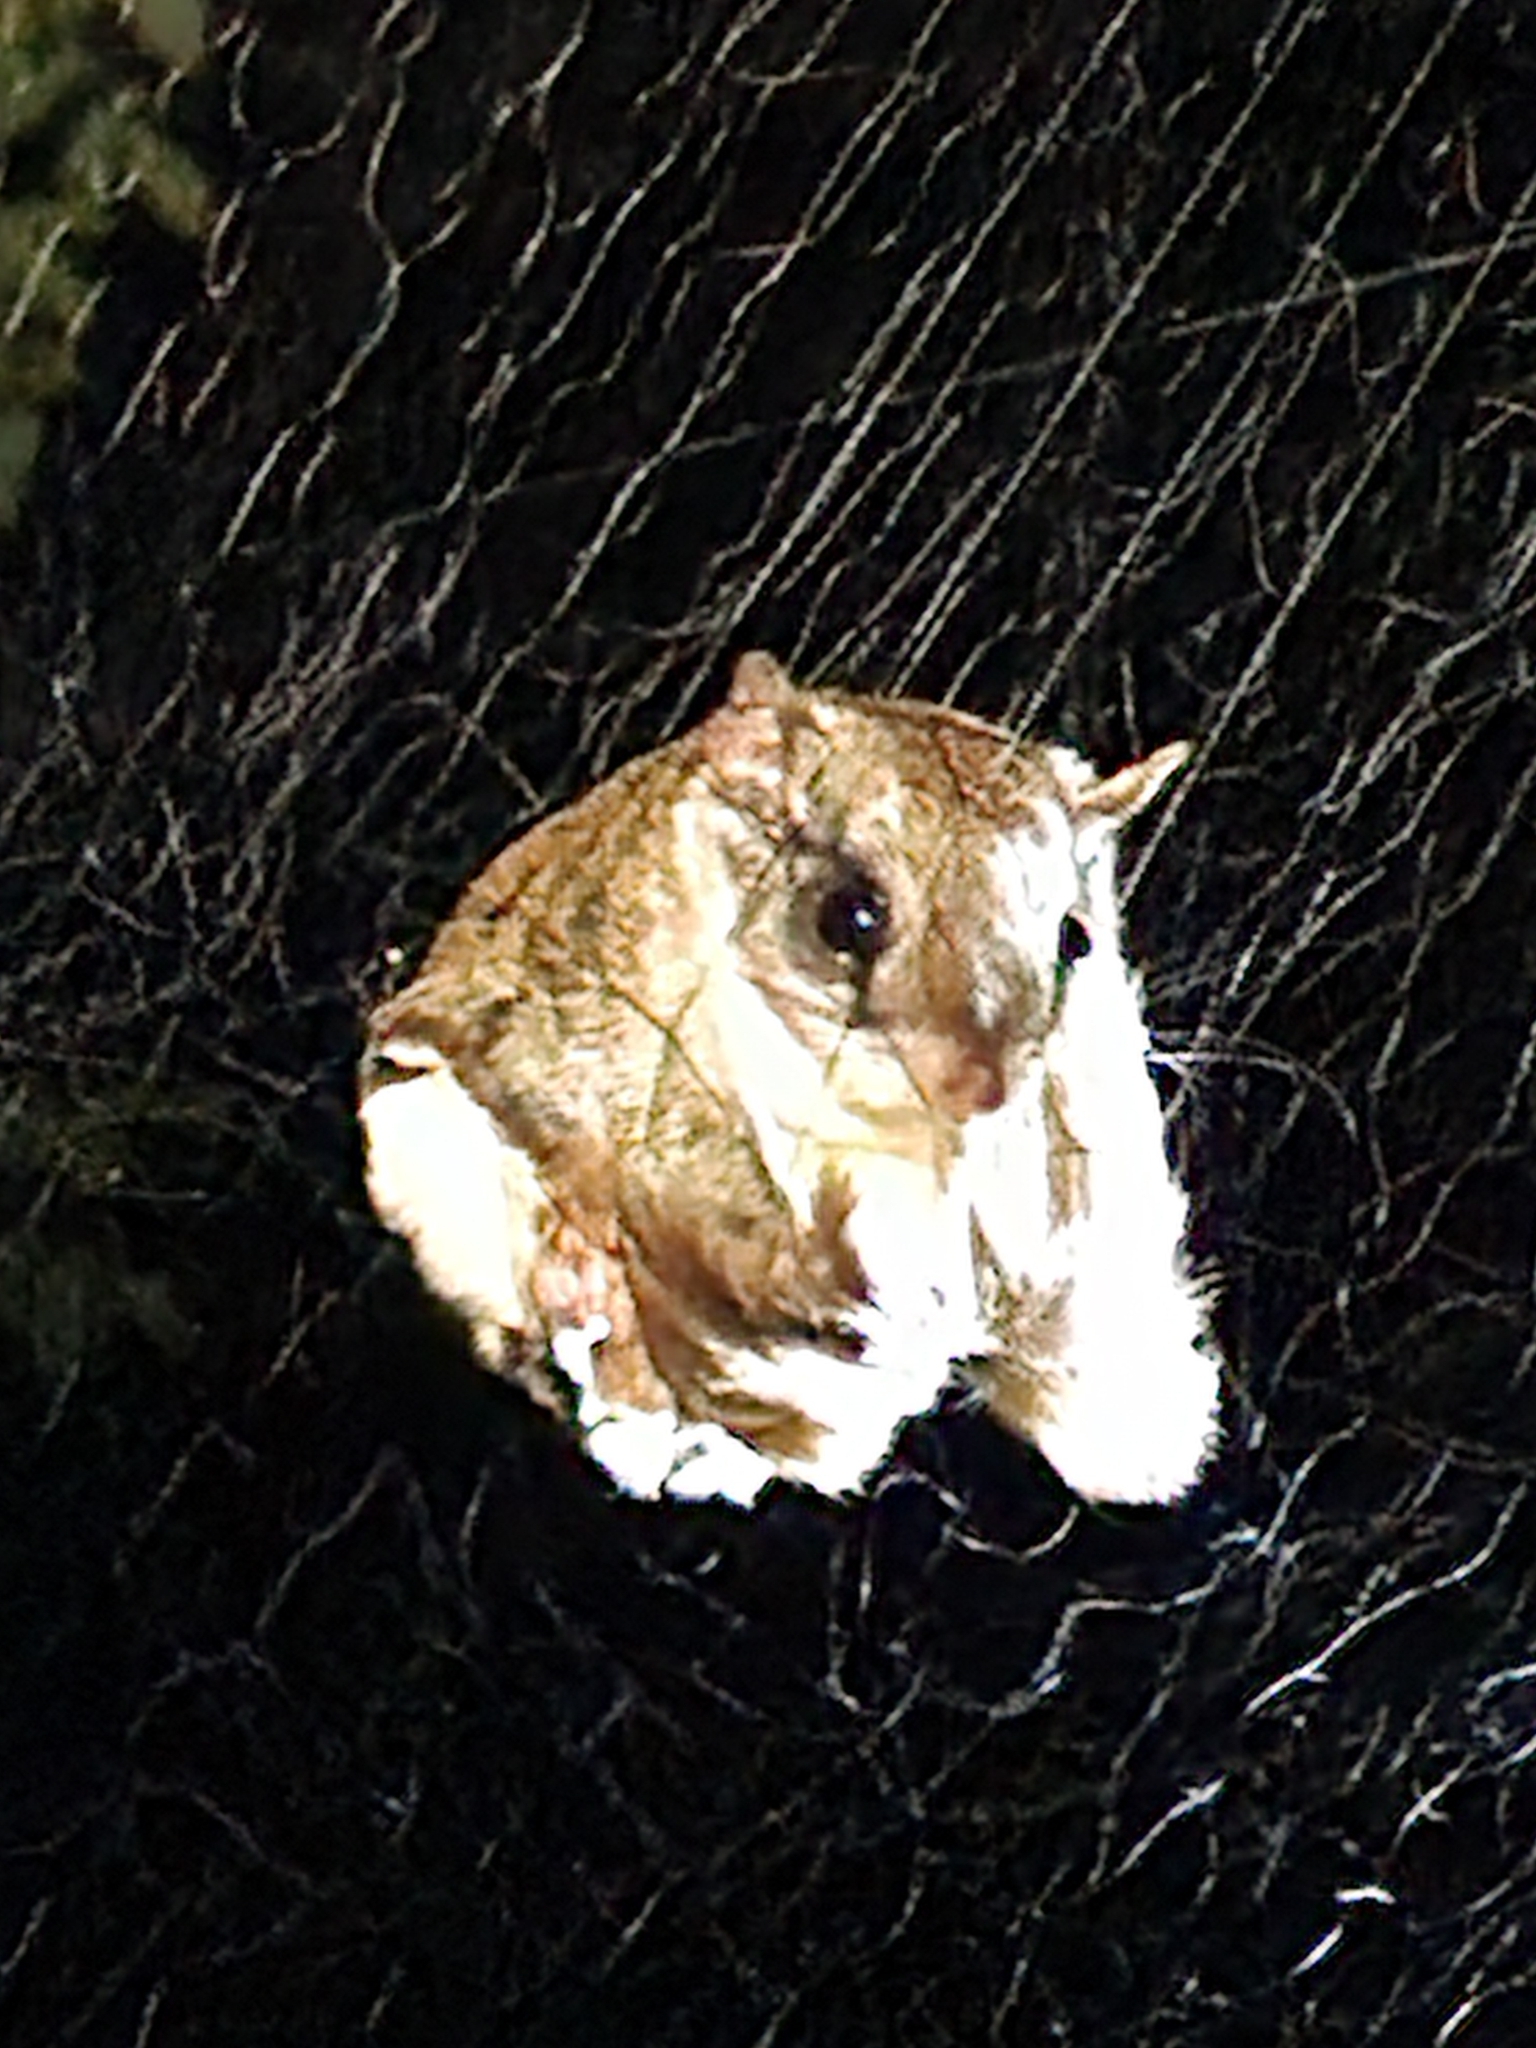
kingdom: Animalia
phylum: Chordata
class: Mammalia
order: Rodentia
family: Sciuridae
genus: Glaucomys
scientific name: Glaucomys volans
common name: Southern flying squirrel
